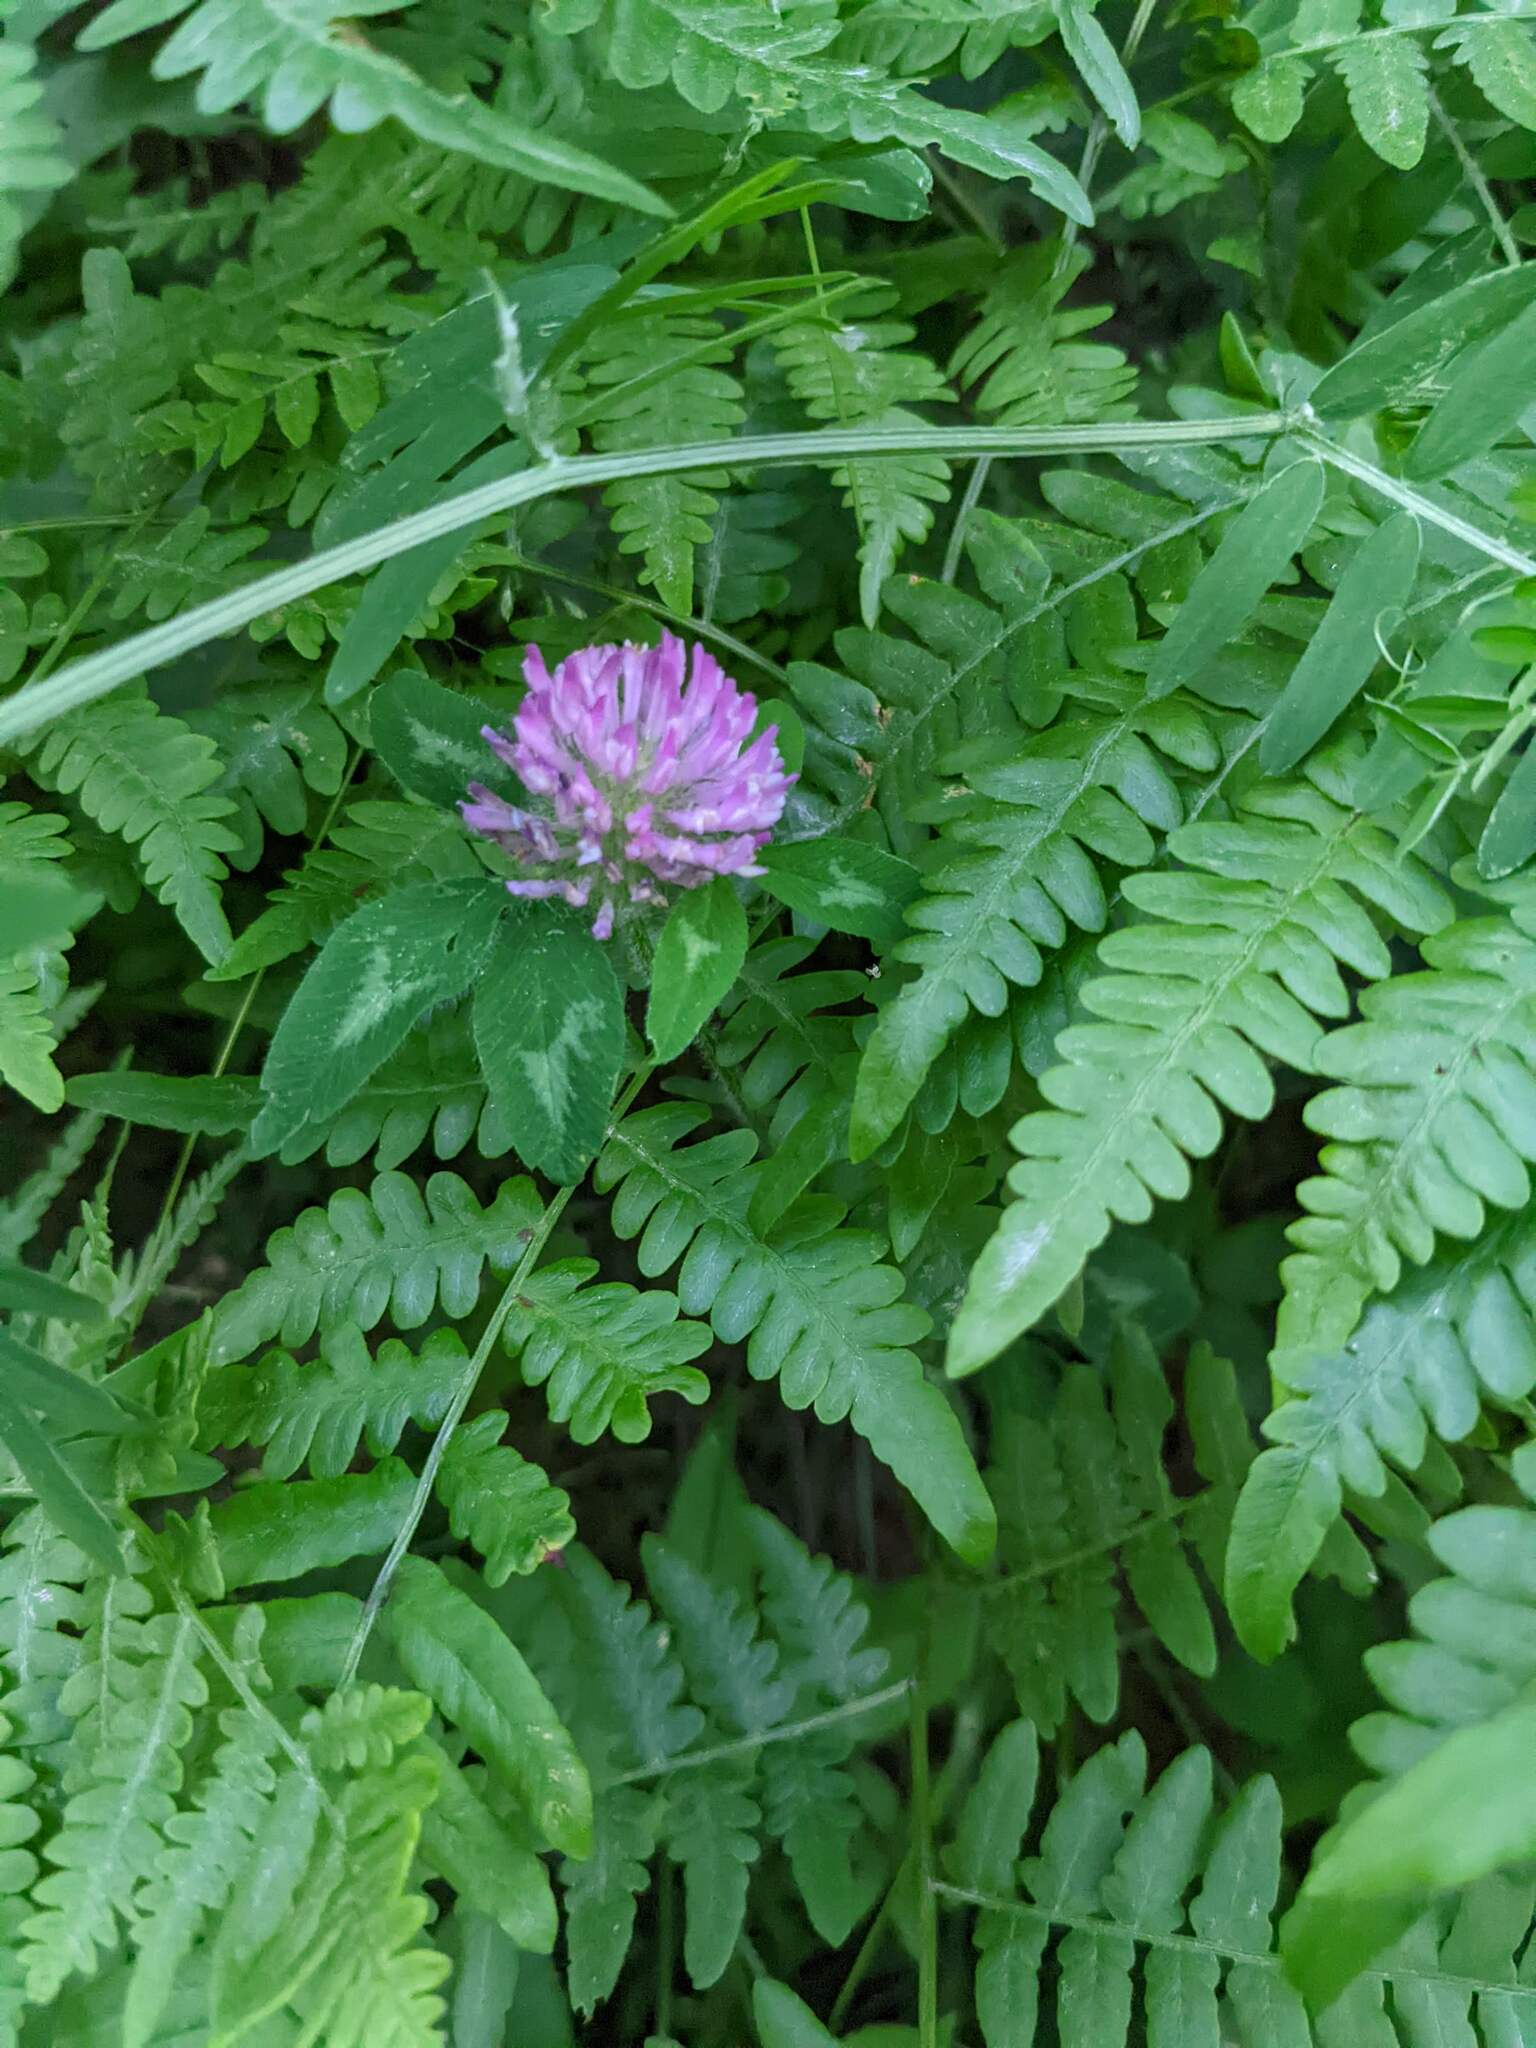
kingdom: Plantae
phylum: Tracheophyta
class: Magnoliopsida
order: Fabales
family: Fabaceae
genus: Trifolium
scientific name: Trifolium pratense
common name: Red clover
